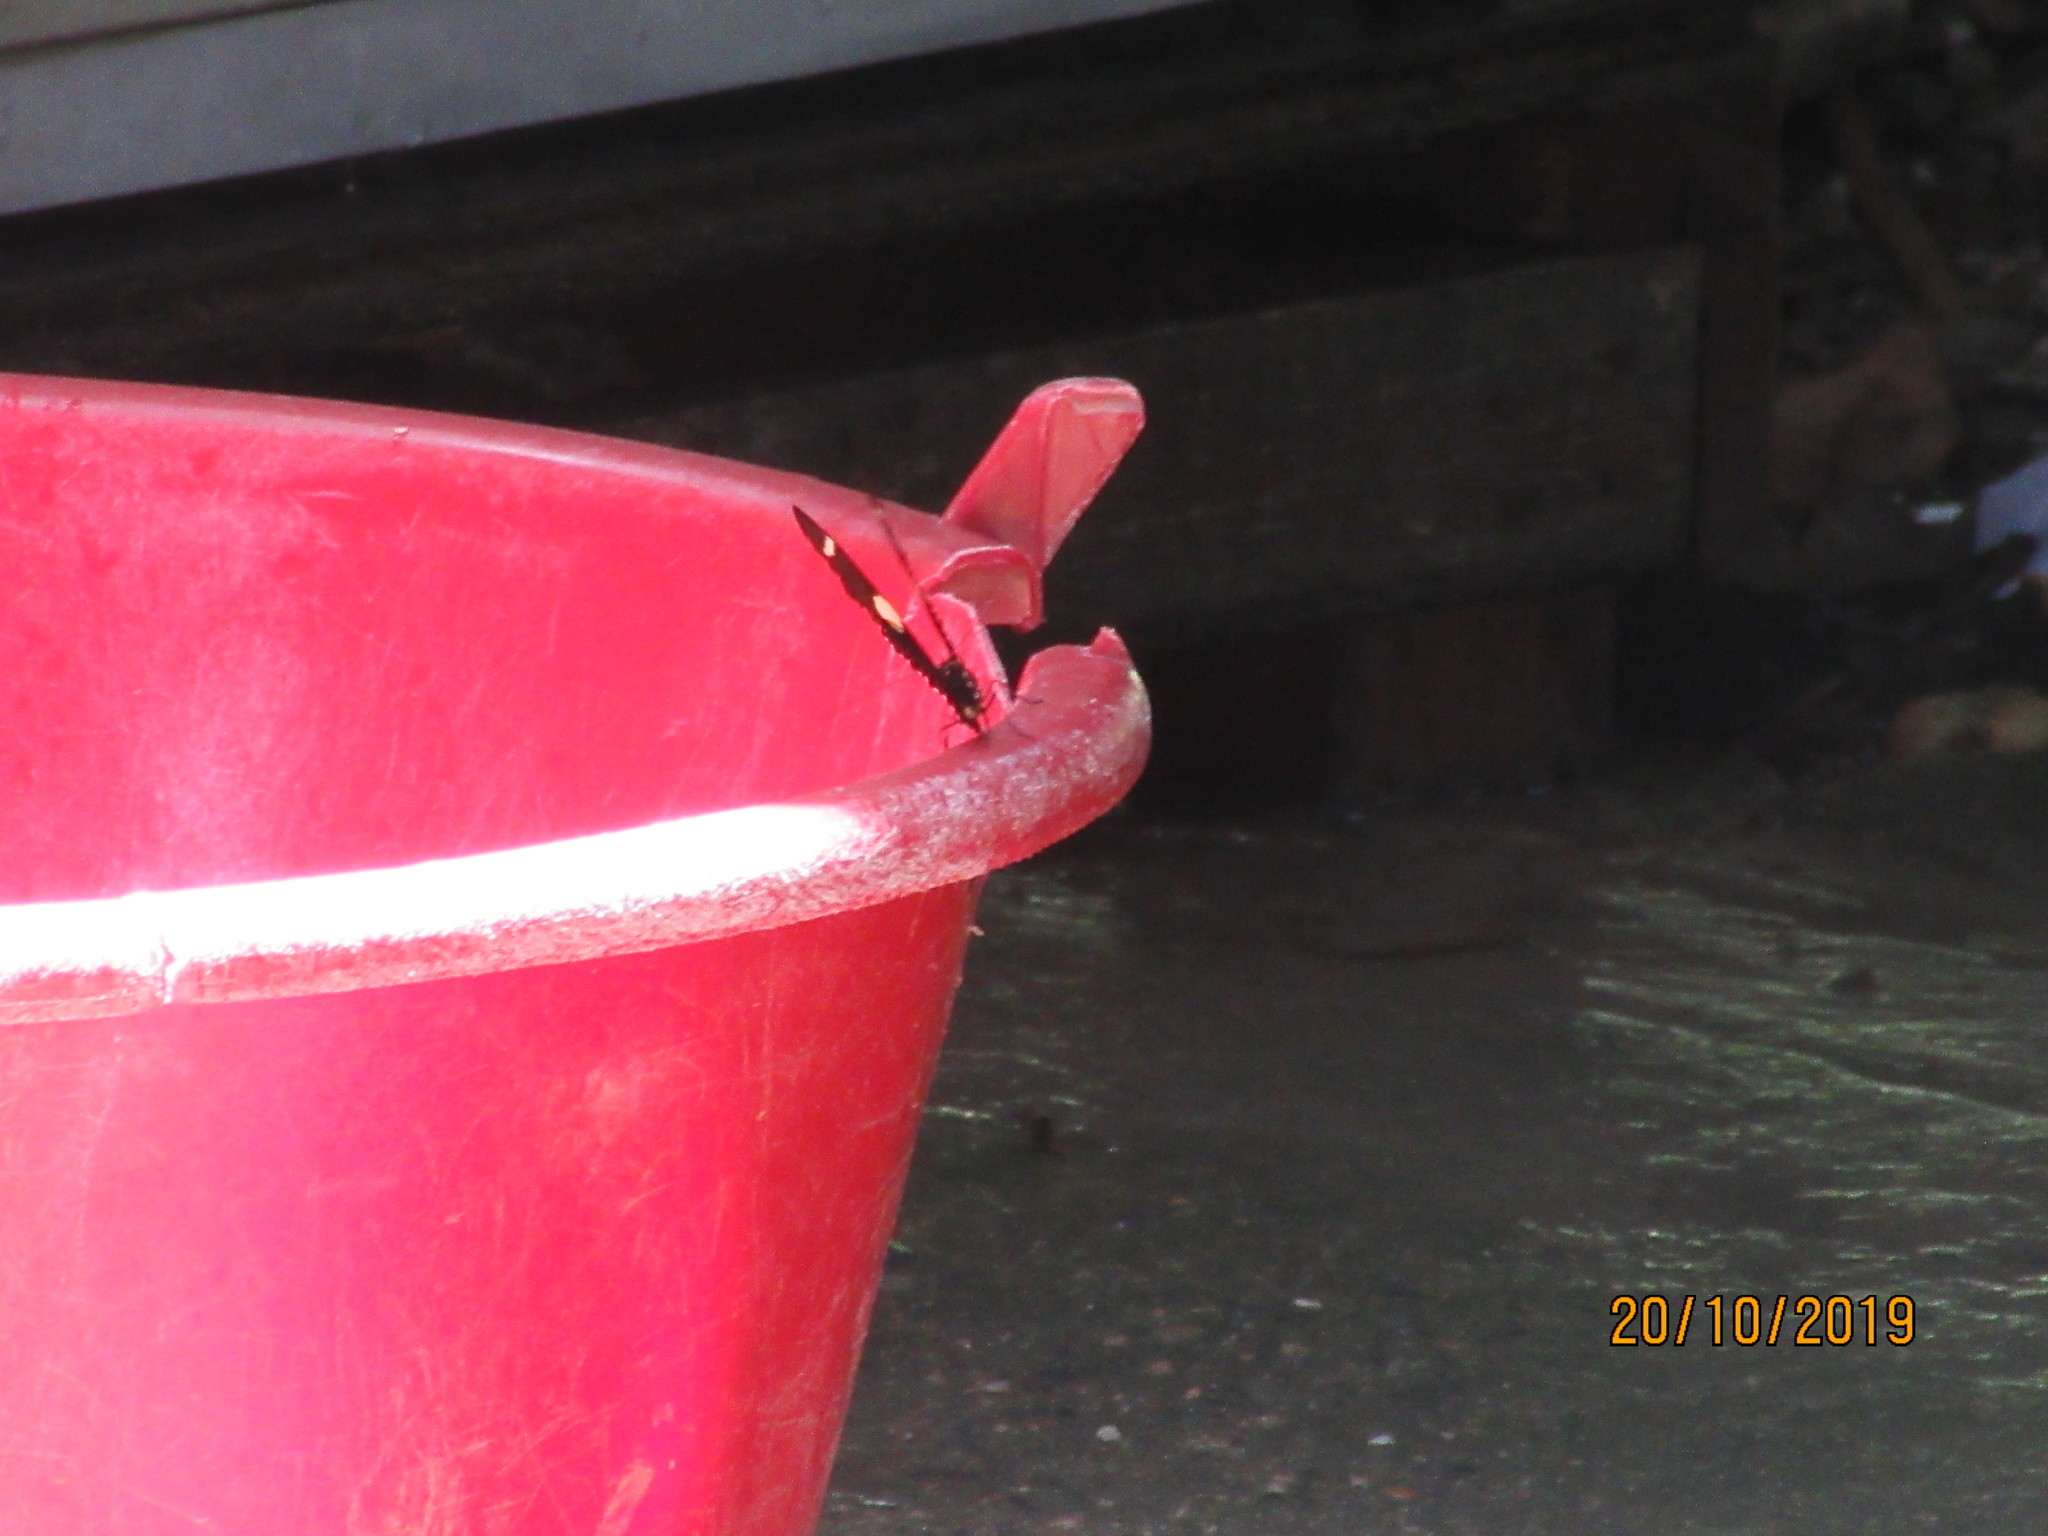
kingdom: Animalia
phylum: Arthropoda
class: Insecta
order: Lepidoptera
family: Nymphalidae
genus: Heliconius
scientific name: Heliconius wallacei
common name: Wallace's longwing
